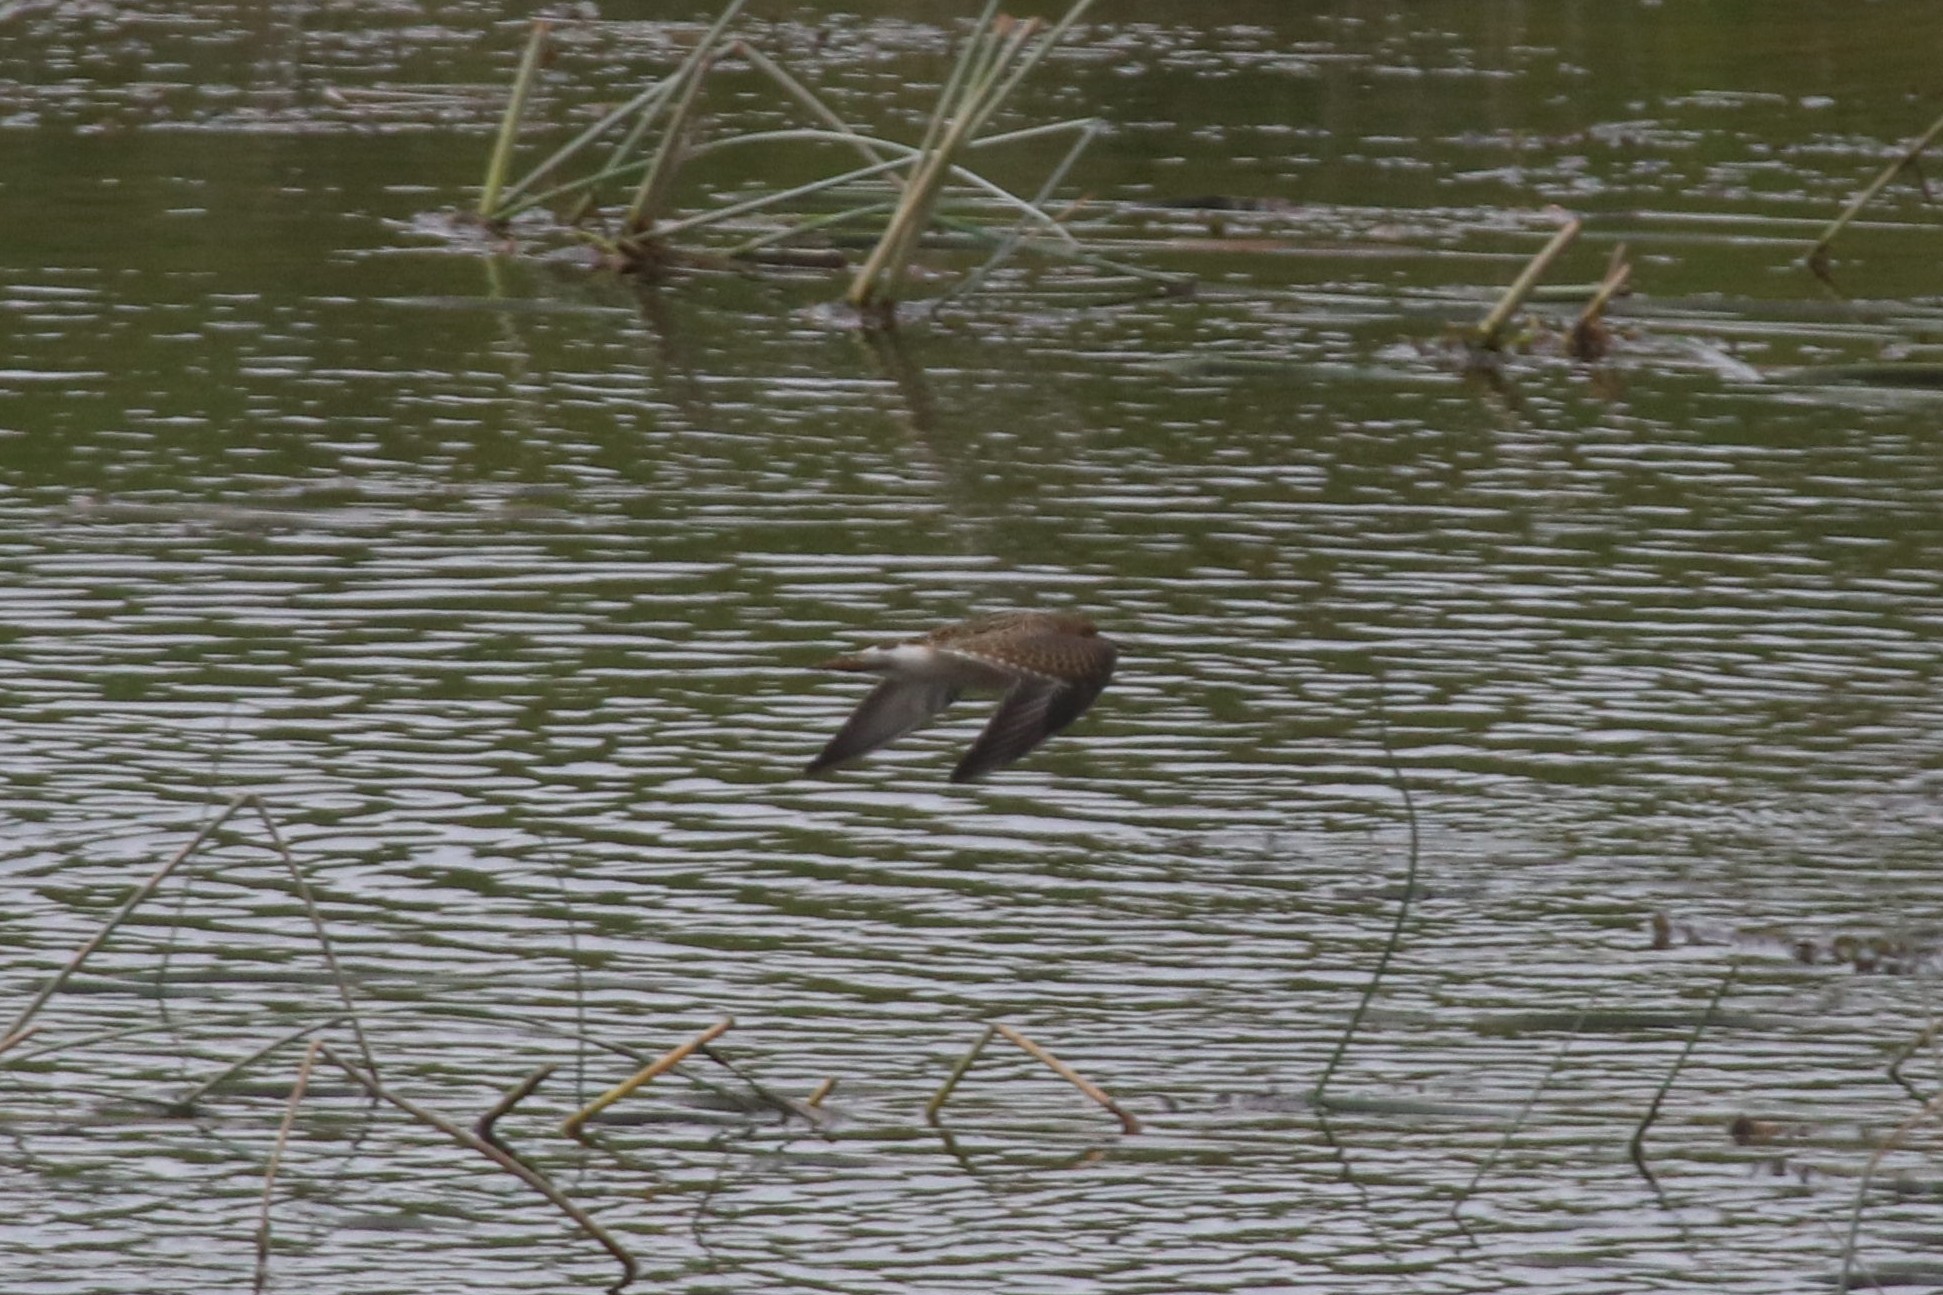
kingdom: Animalia
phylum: Chordata
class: Aves
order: Charadriiformes
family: Scolopacidae
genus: Calidris
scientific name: Calidris pugnax
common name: Ruff
